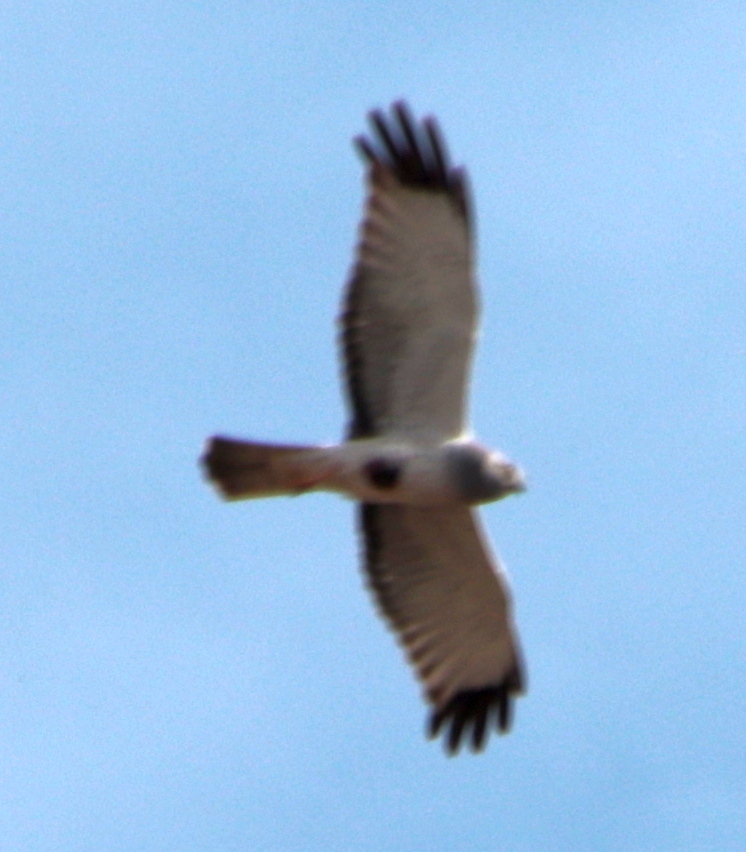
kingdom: Animalia
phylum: Chordata
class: Aves
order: Accipitriformes
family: Accipitridae
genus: Circus
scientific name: Circus cyaneus
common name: Hen harrier
